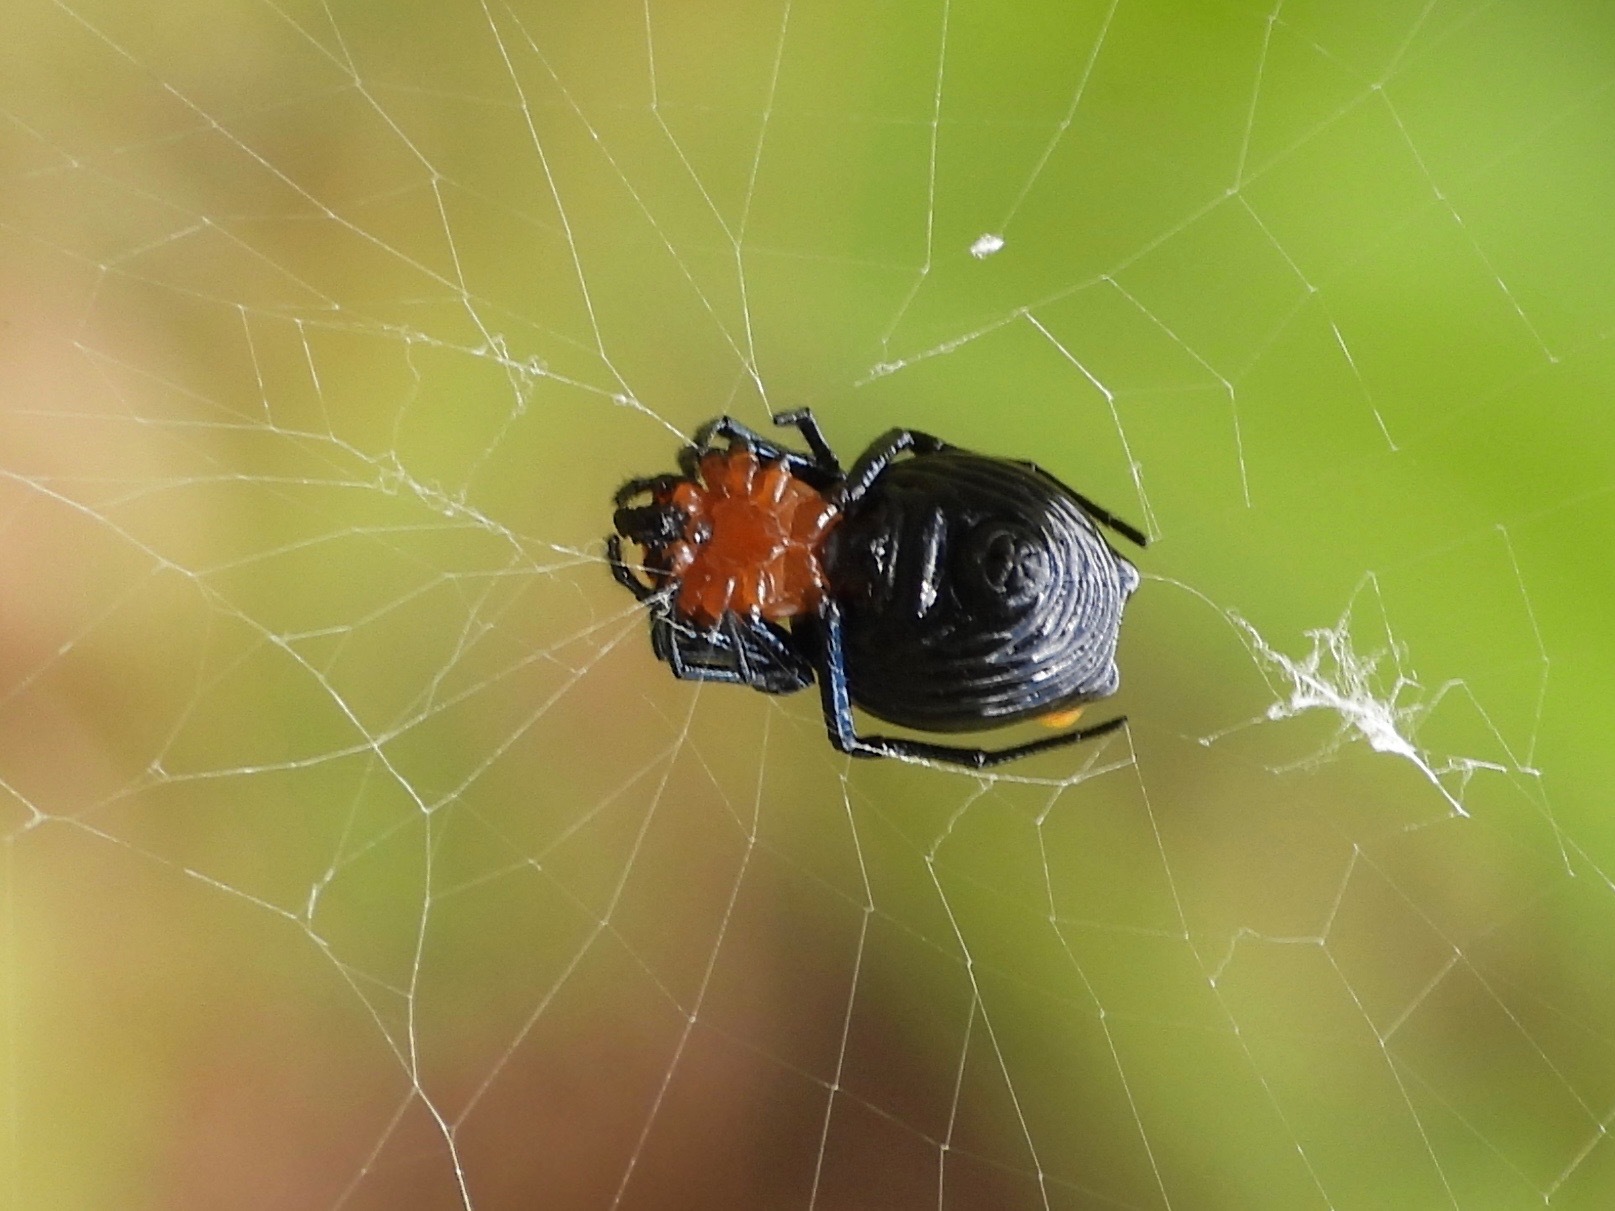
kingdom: Animalia
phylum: Arthropoda
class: Arachnida
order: Araneae
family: Araneidae
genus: Micrathena
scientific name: Micrathena glyptogonoides
